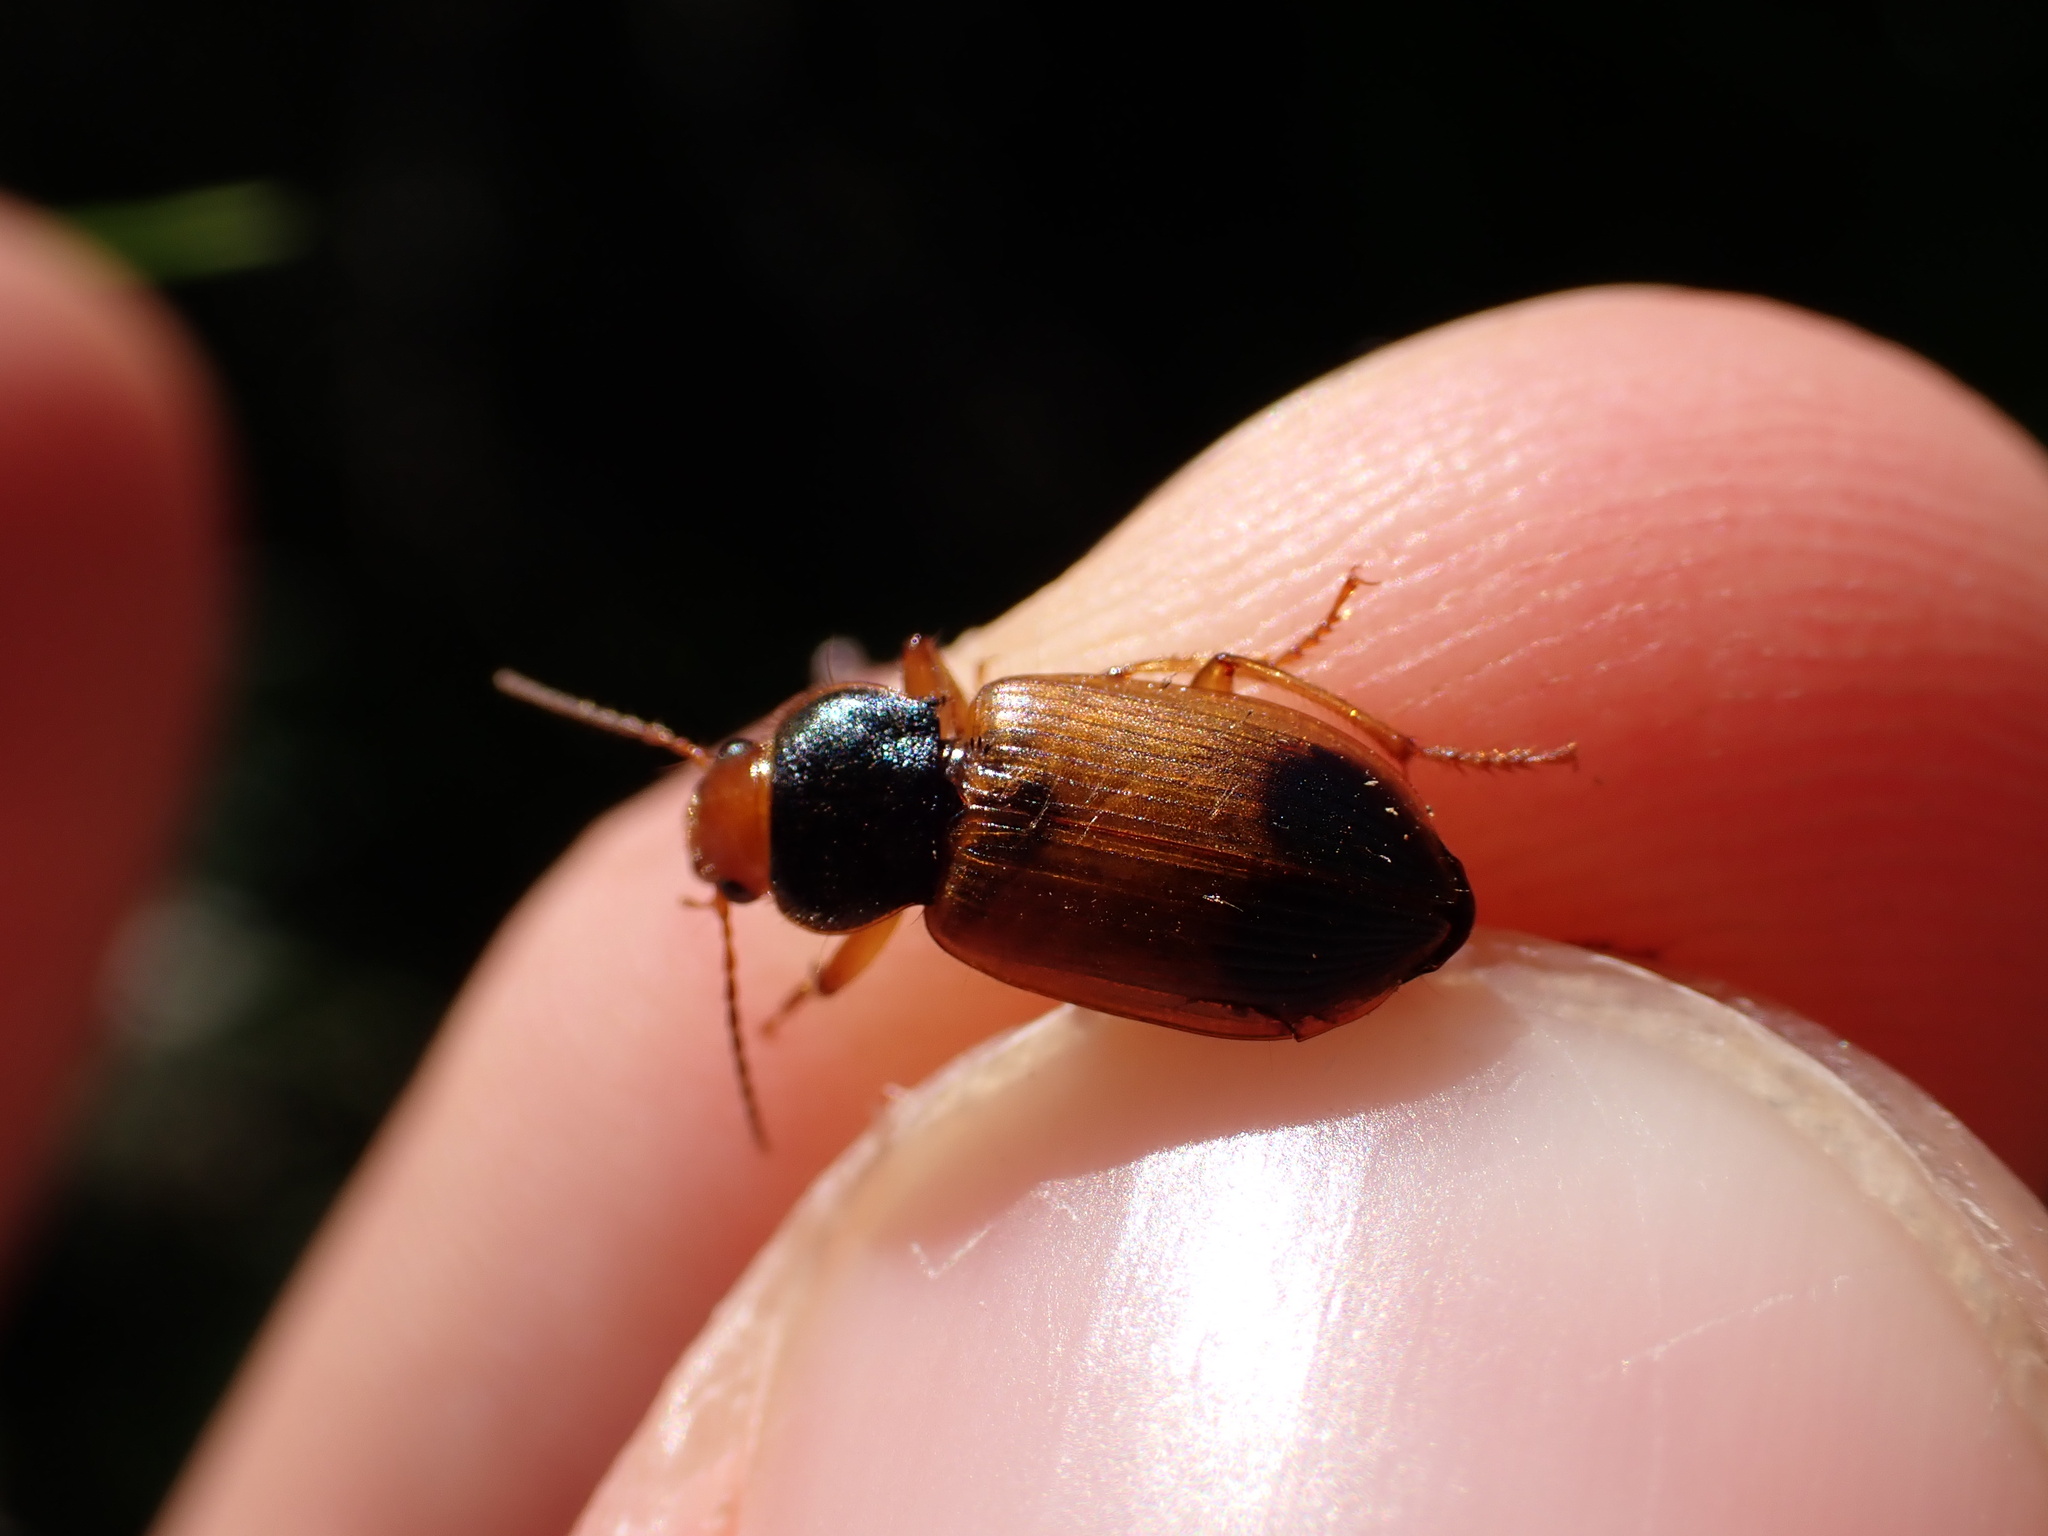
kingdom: Animalia
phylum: Arthropoda
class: Insecta
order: Coleoptera
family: Carabidae
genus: Diachromus
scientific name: Diachromus germanus
